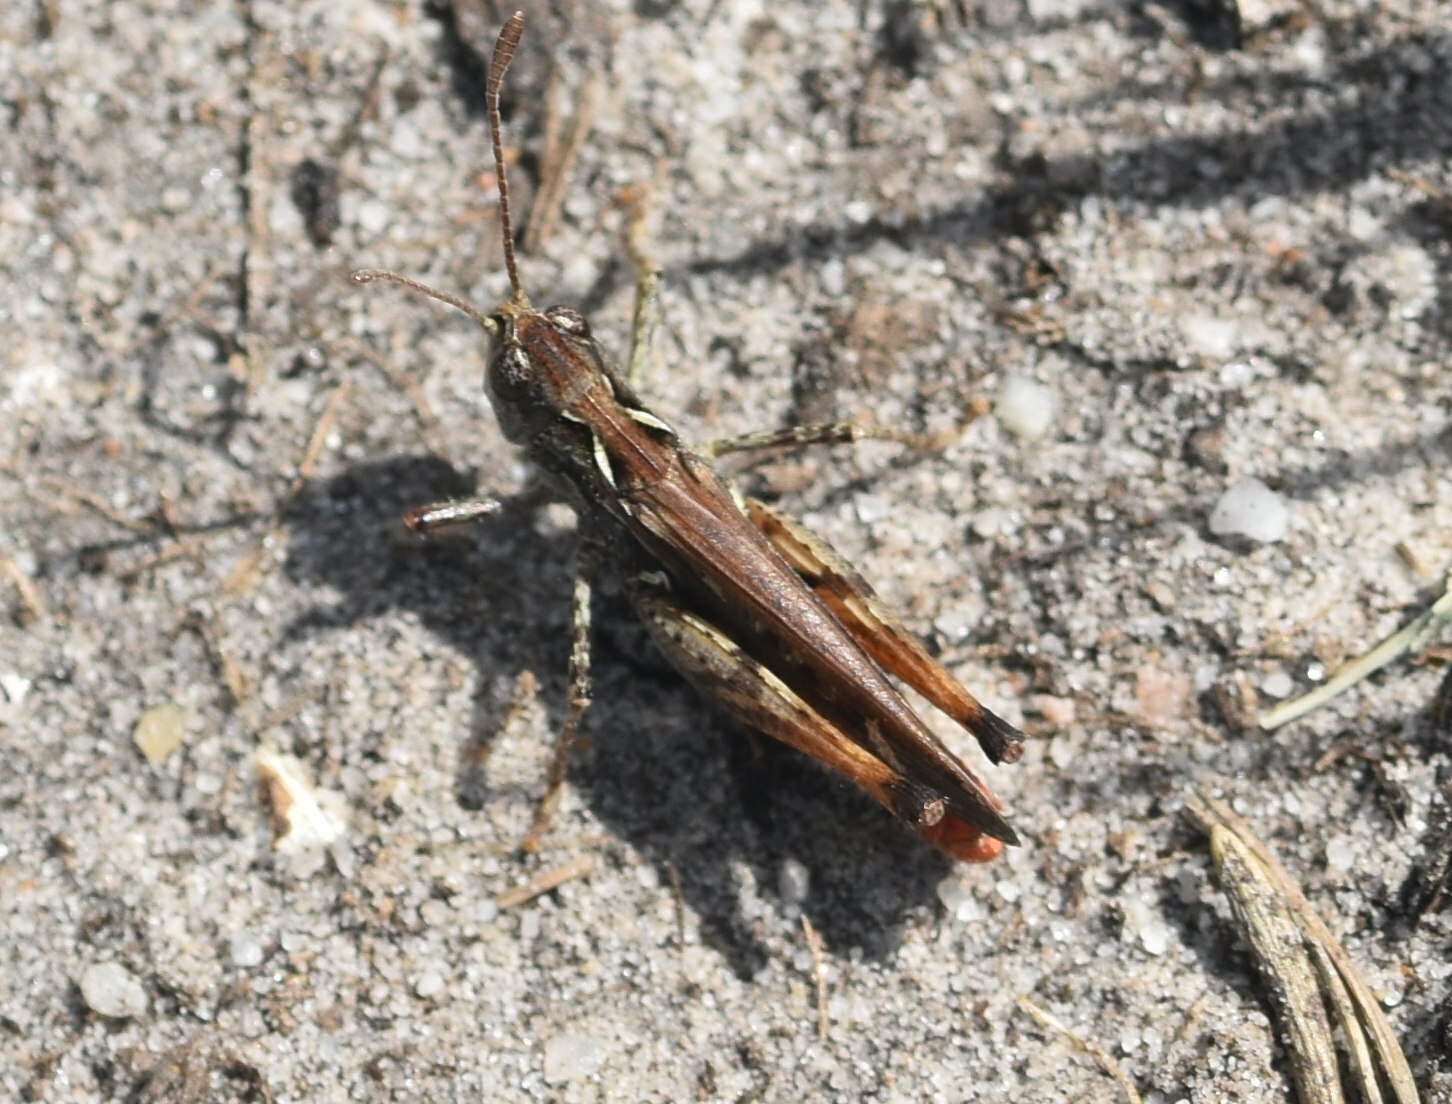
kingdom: Animalia
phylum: Arthropoda
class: Insecta
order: Orthoptera
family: Acrididae
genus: Myrmeleotettix
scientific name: Myrmeleotettix maculatus
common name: Mottled grasshopper
